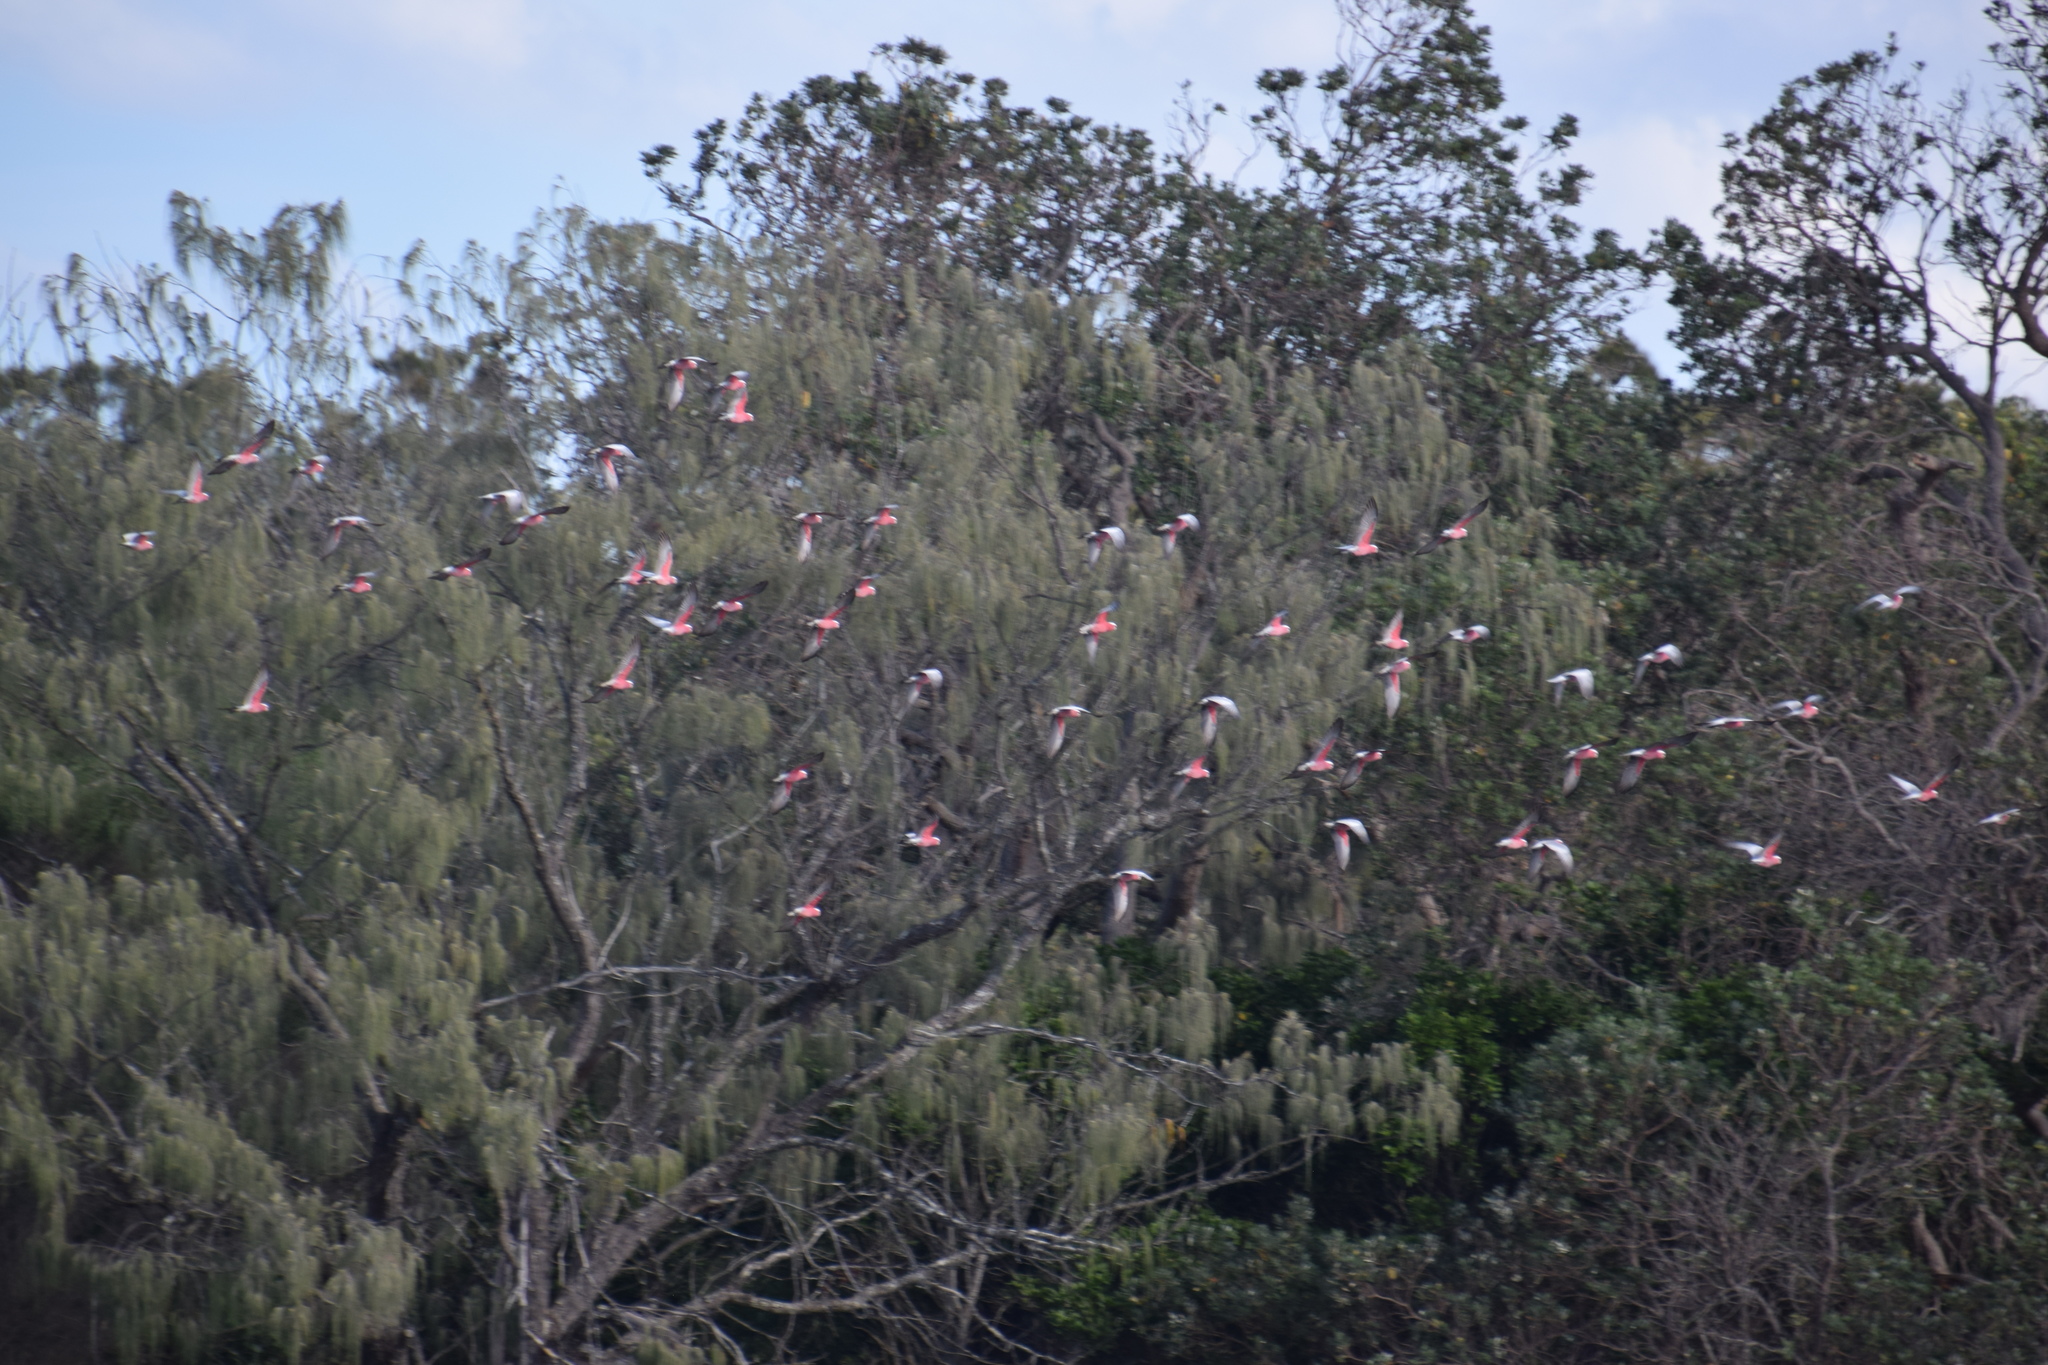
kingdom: Animalia
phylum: Chordata
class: Aves
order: Psittaciformes
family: Psittacidae
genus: Eolophus
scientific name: Eolophus roseicapilla
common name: Galah
